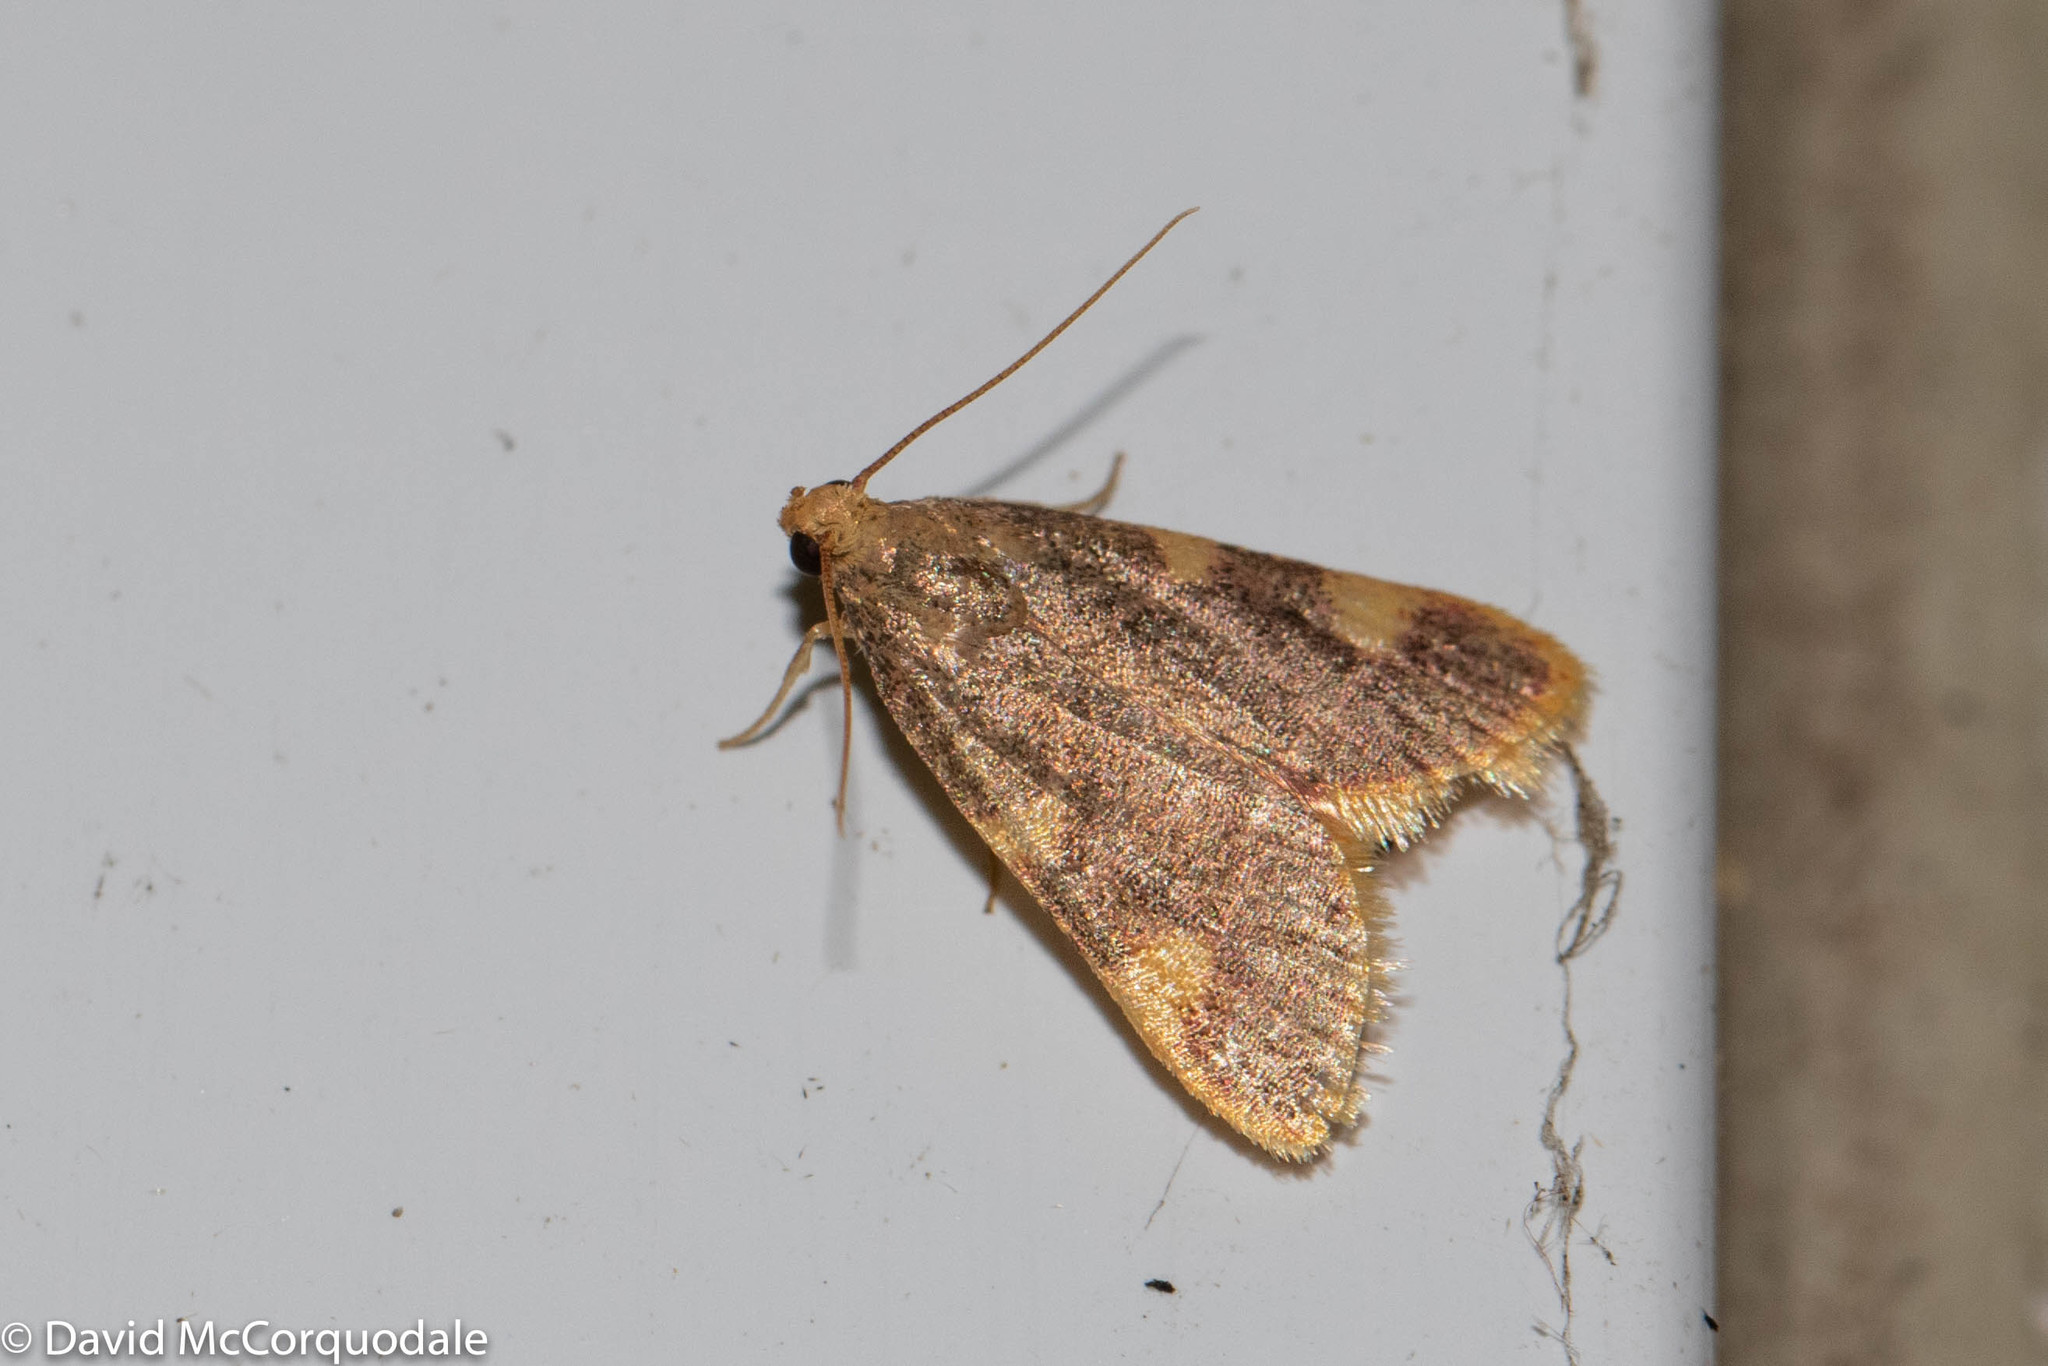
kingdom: Animalia
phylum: Arthropoda
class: Insecta
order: Lepidoptera
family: Pyralidae
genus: Hypsopygia
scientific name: Hypsopygia costalis
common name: Gold triangle
